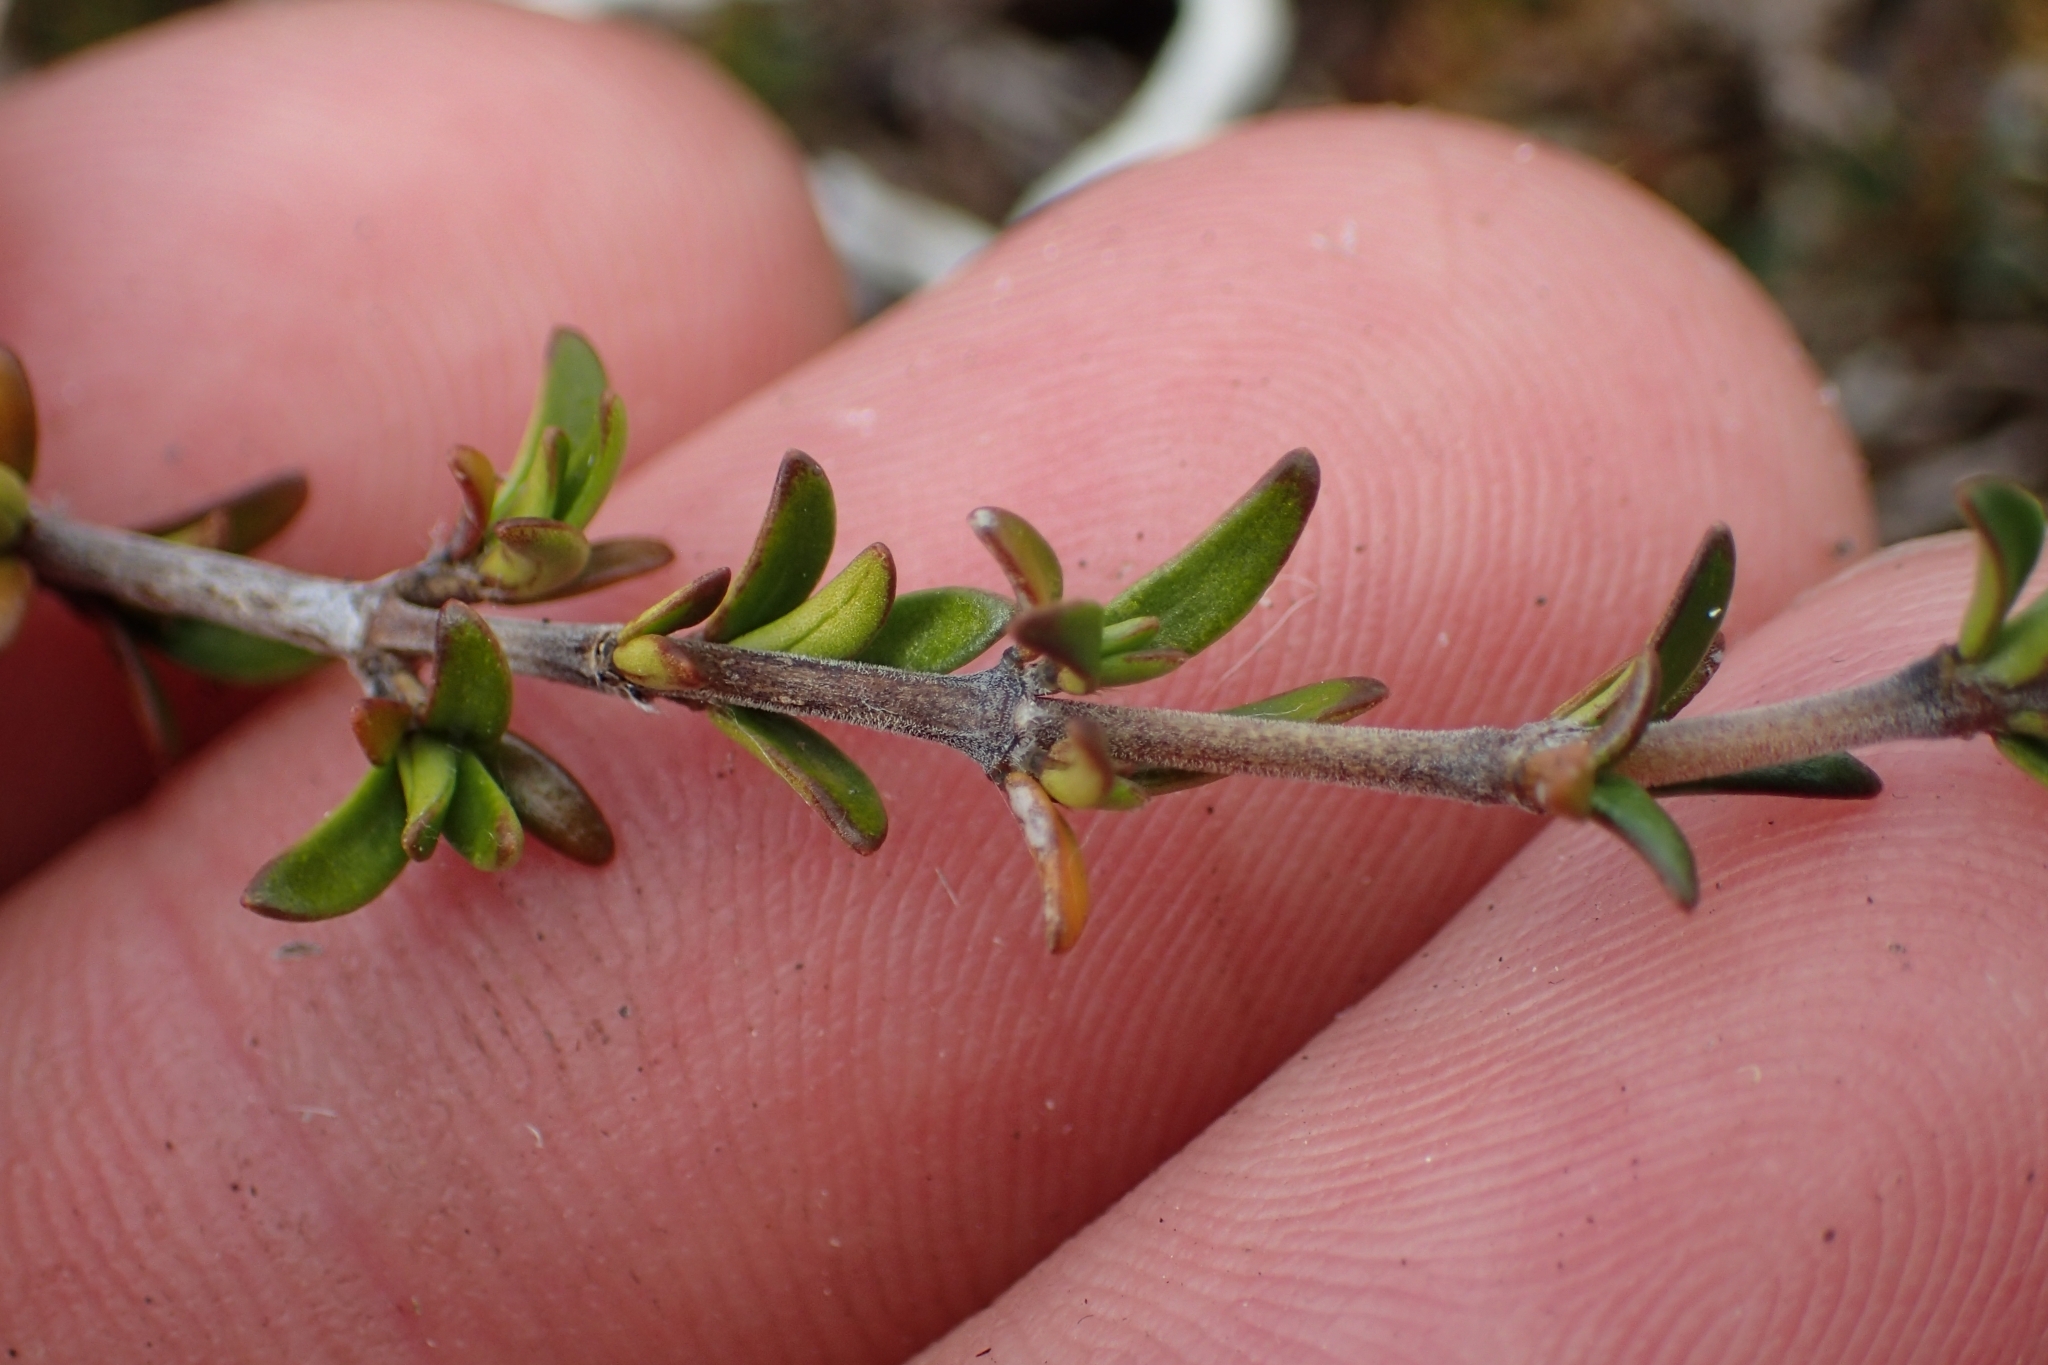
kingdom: Plantae
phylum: Tracheophyta
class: Magnoliopsida
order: Gentianales
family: Rubiaceae
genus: Coprosma
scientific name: Coprosma cheesemanii
